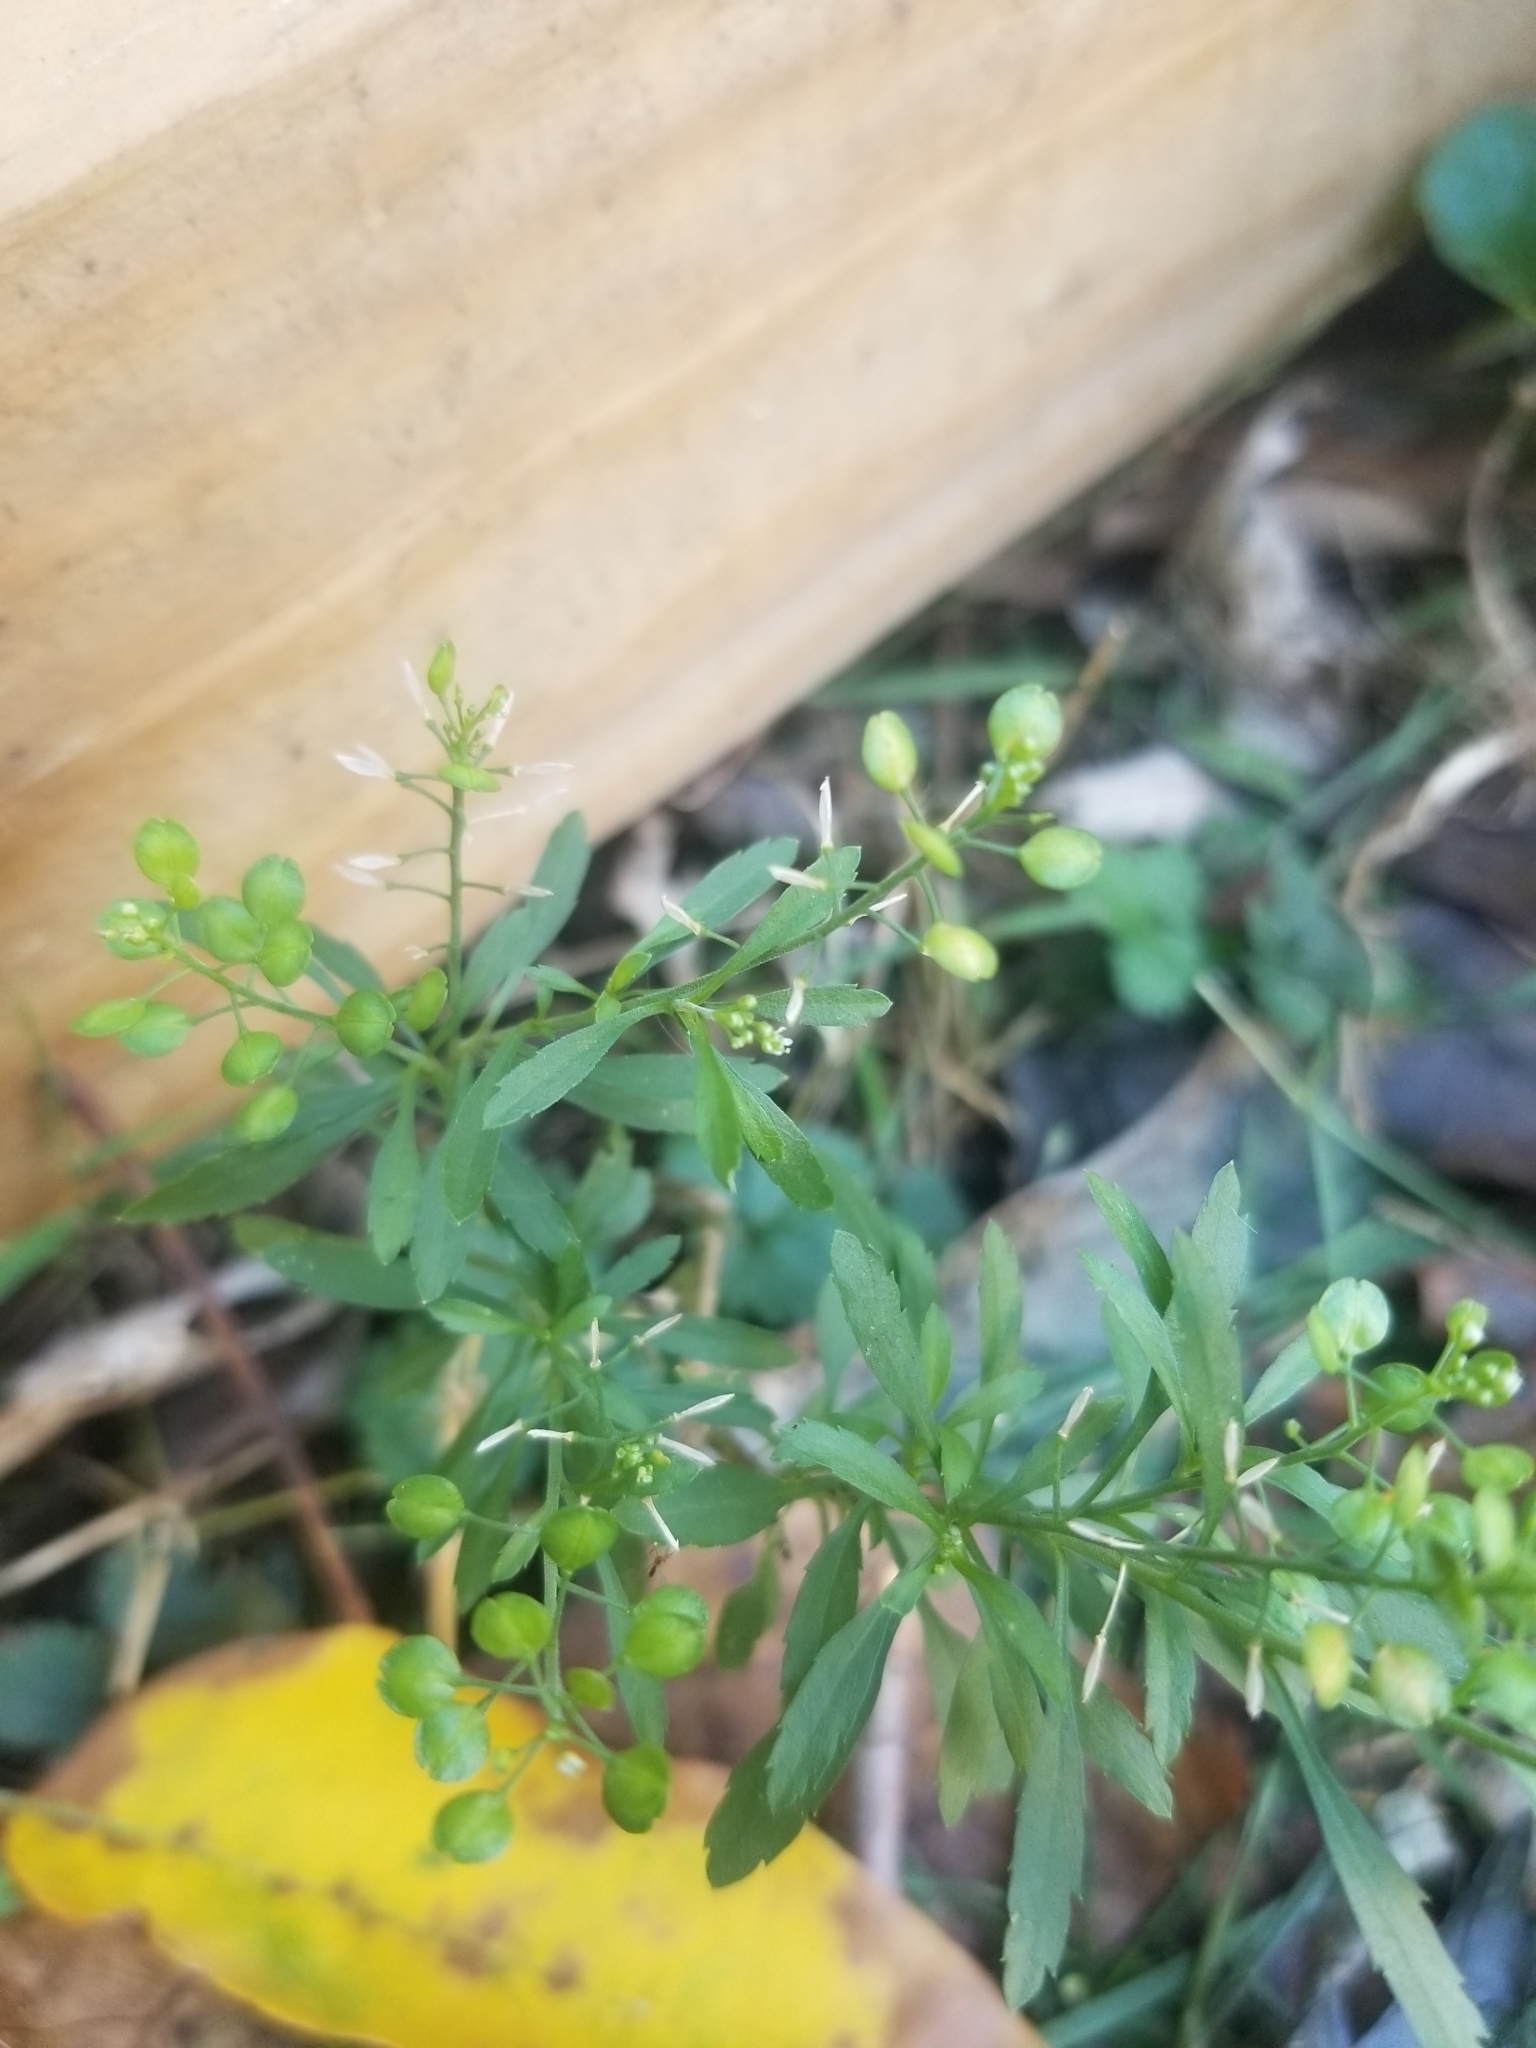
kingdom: Plantae
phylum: Tracheophyta
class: Magnoliopsida
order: Brassicales
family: Brassicaceae
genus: Lepidium
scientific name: Lepidium virginicum
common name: Least pepperwort
